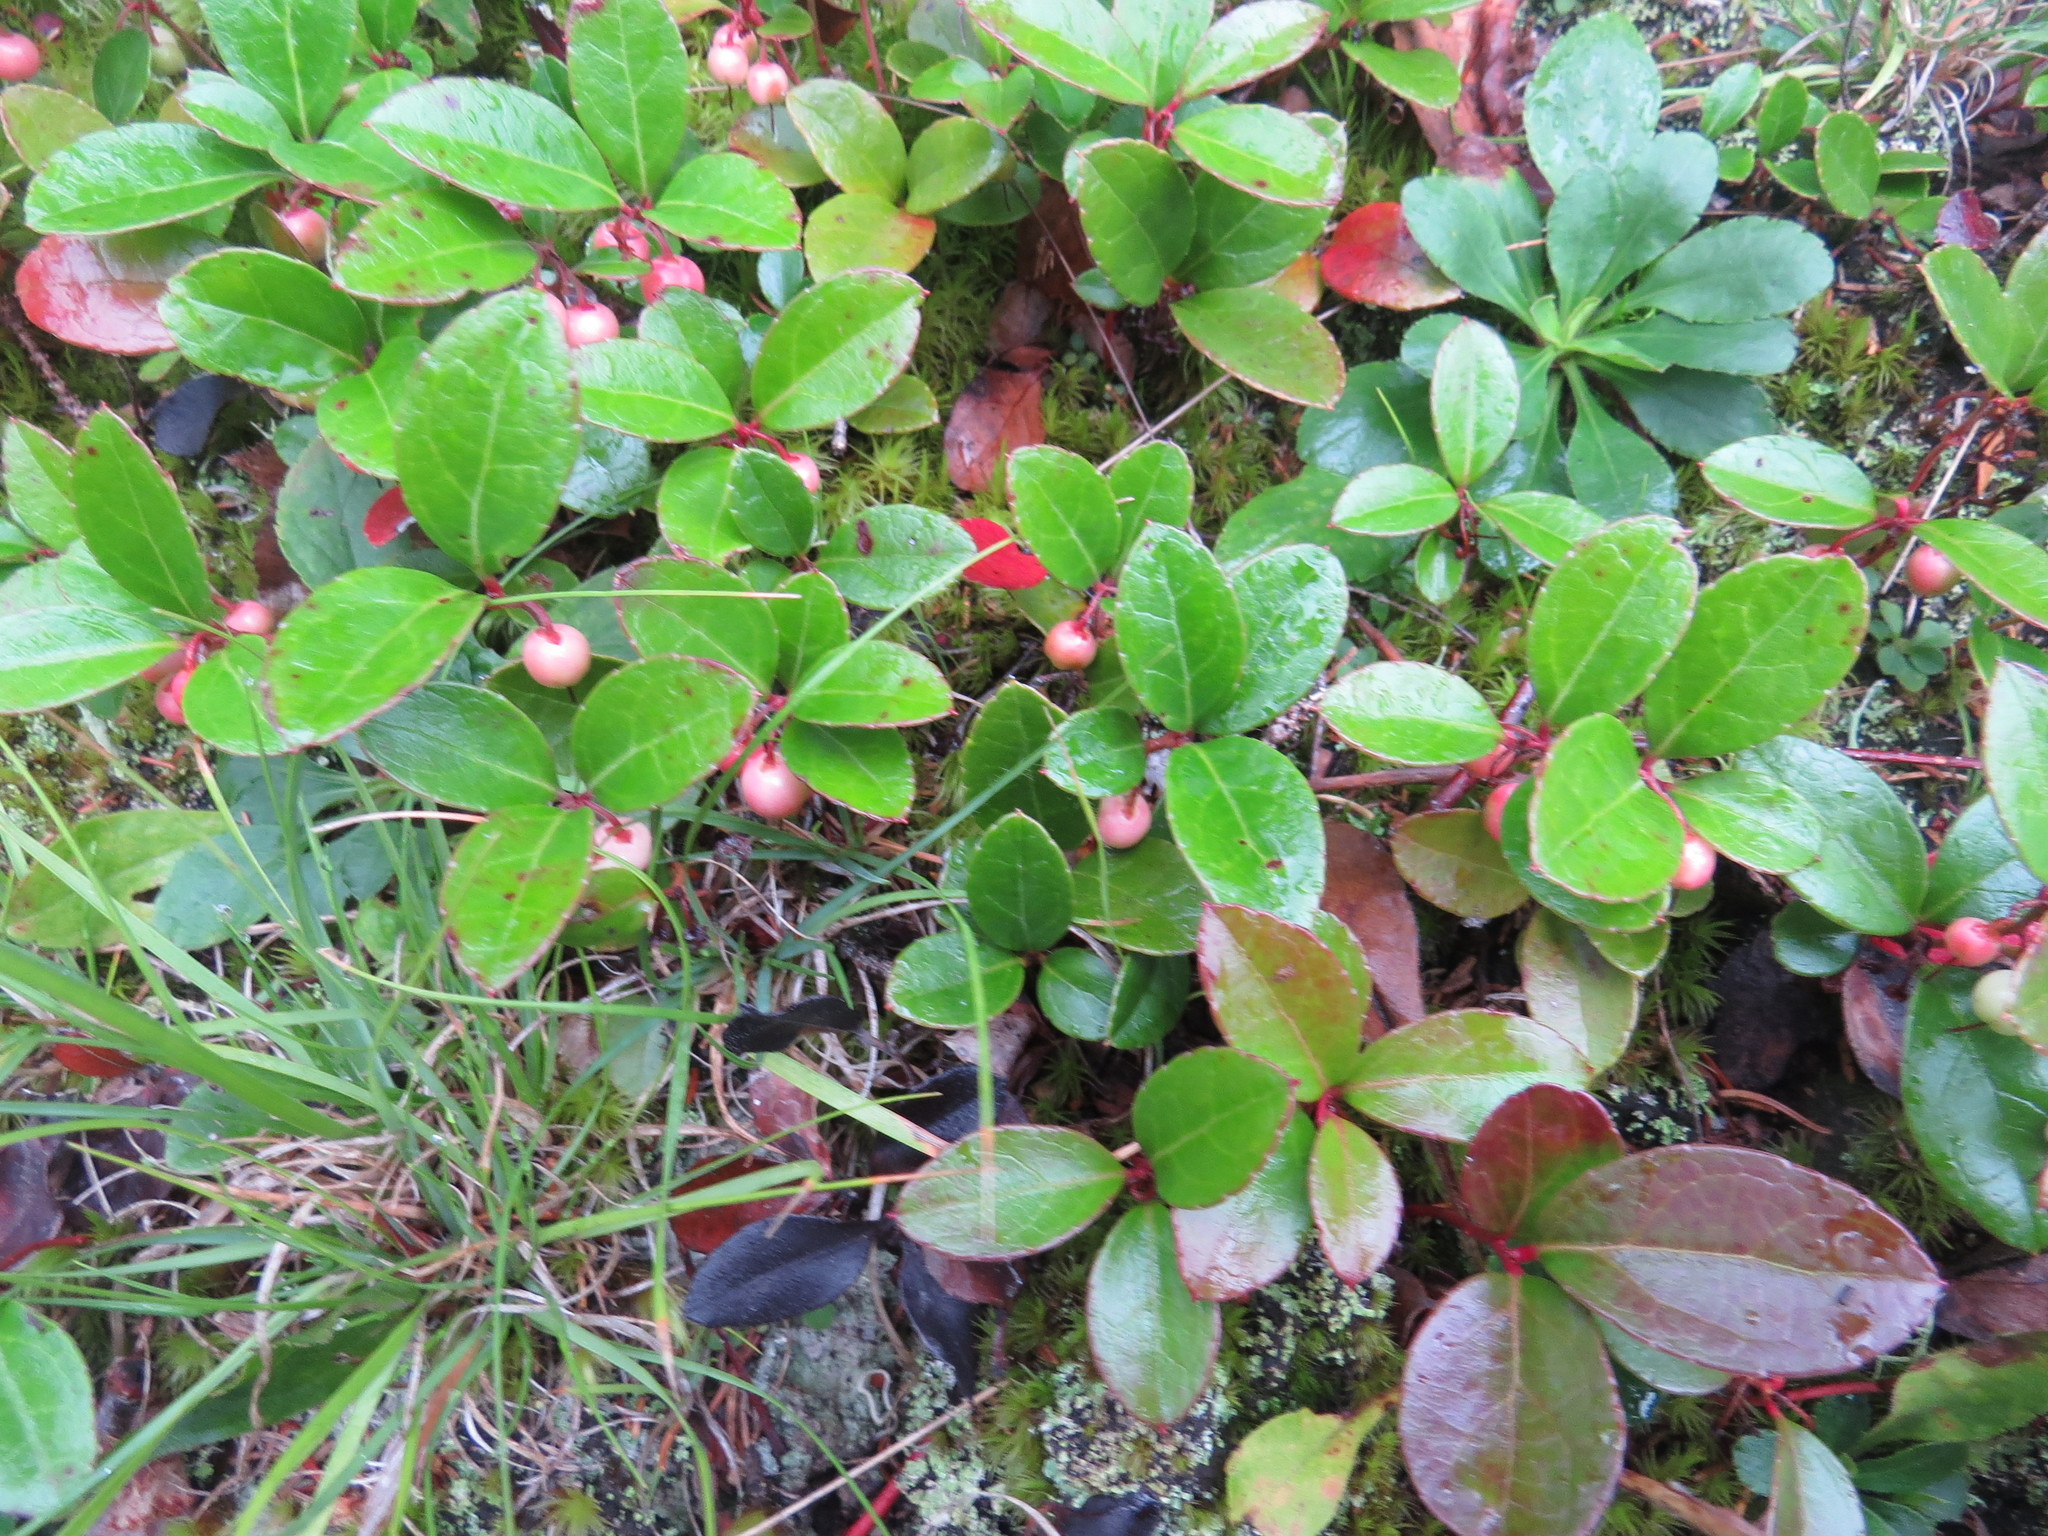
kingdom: Plantae
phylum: Tracheophyta
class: Magnoliopsida
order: Ericales
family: Ericaceae
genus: Gaultheria
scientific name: Gaultheria procumbens
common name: Checkerberry
